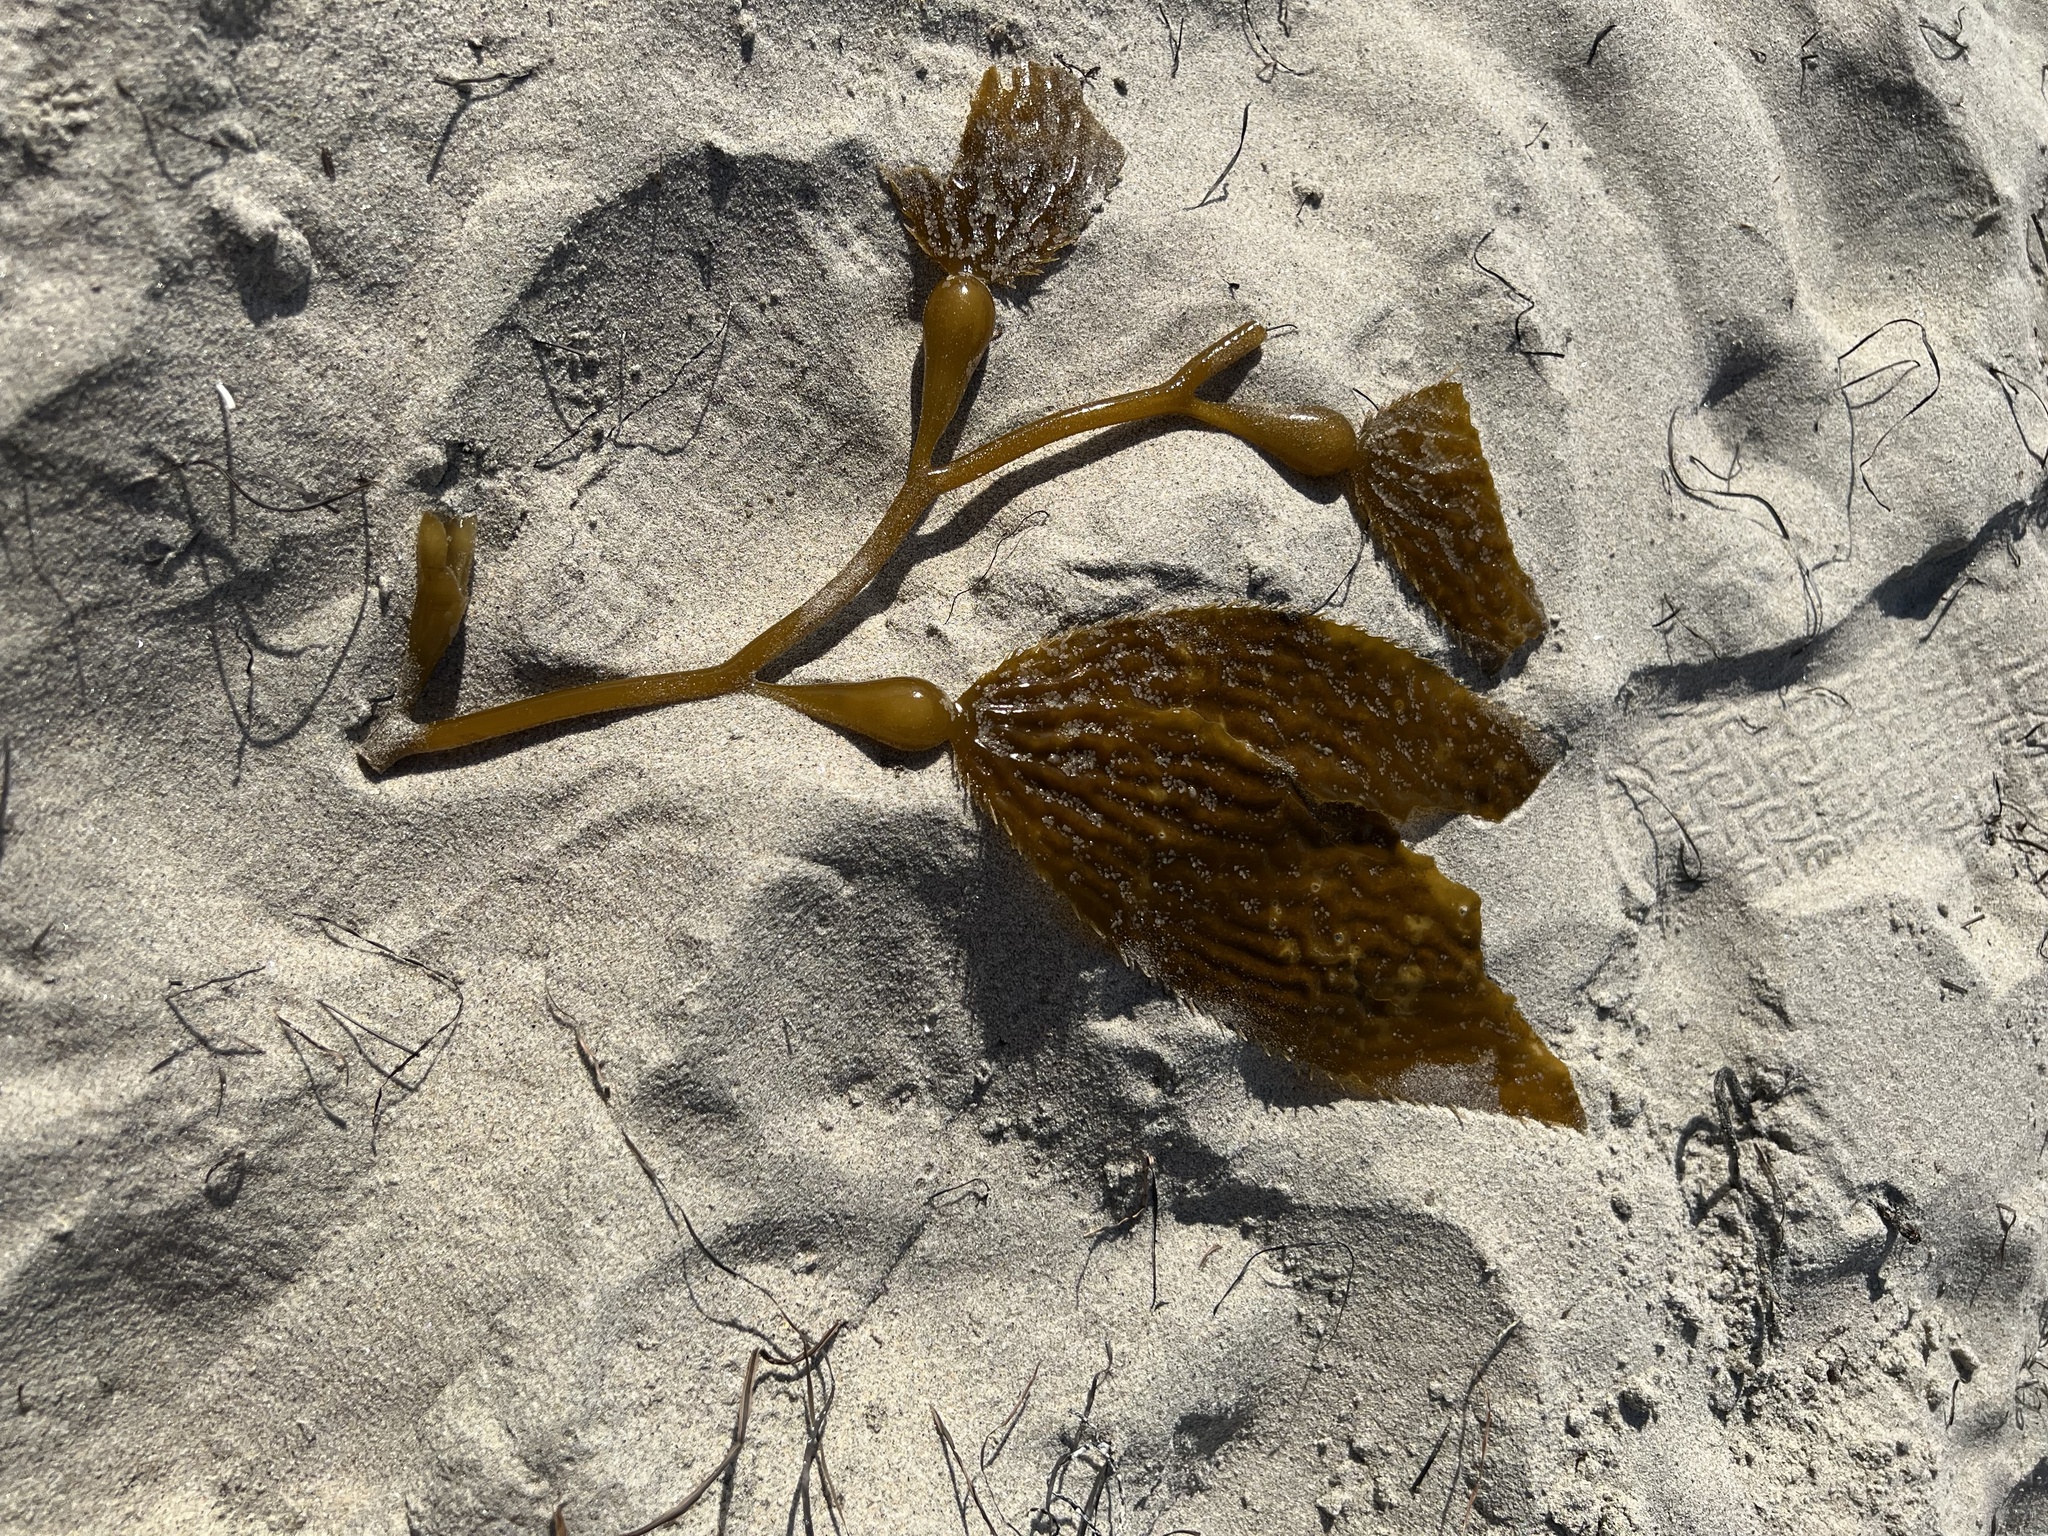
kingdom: Chromista
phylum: Ochrophyta
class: Phaeophyceae
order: Laminariales
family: Laminariaceae
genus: Macrocystis
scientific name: Macrocystis pyrifera
